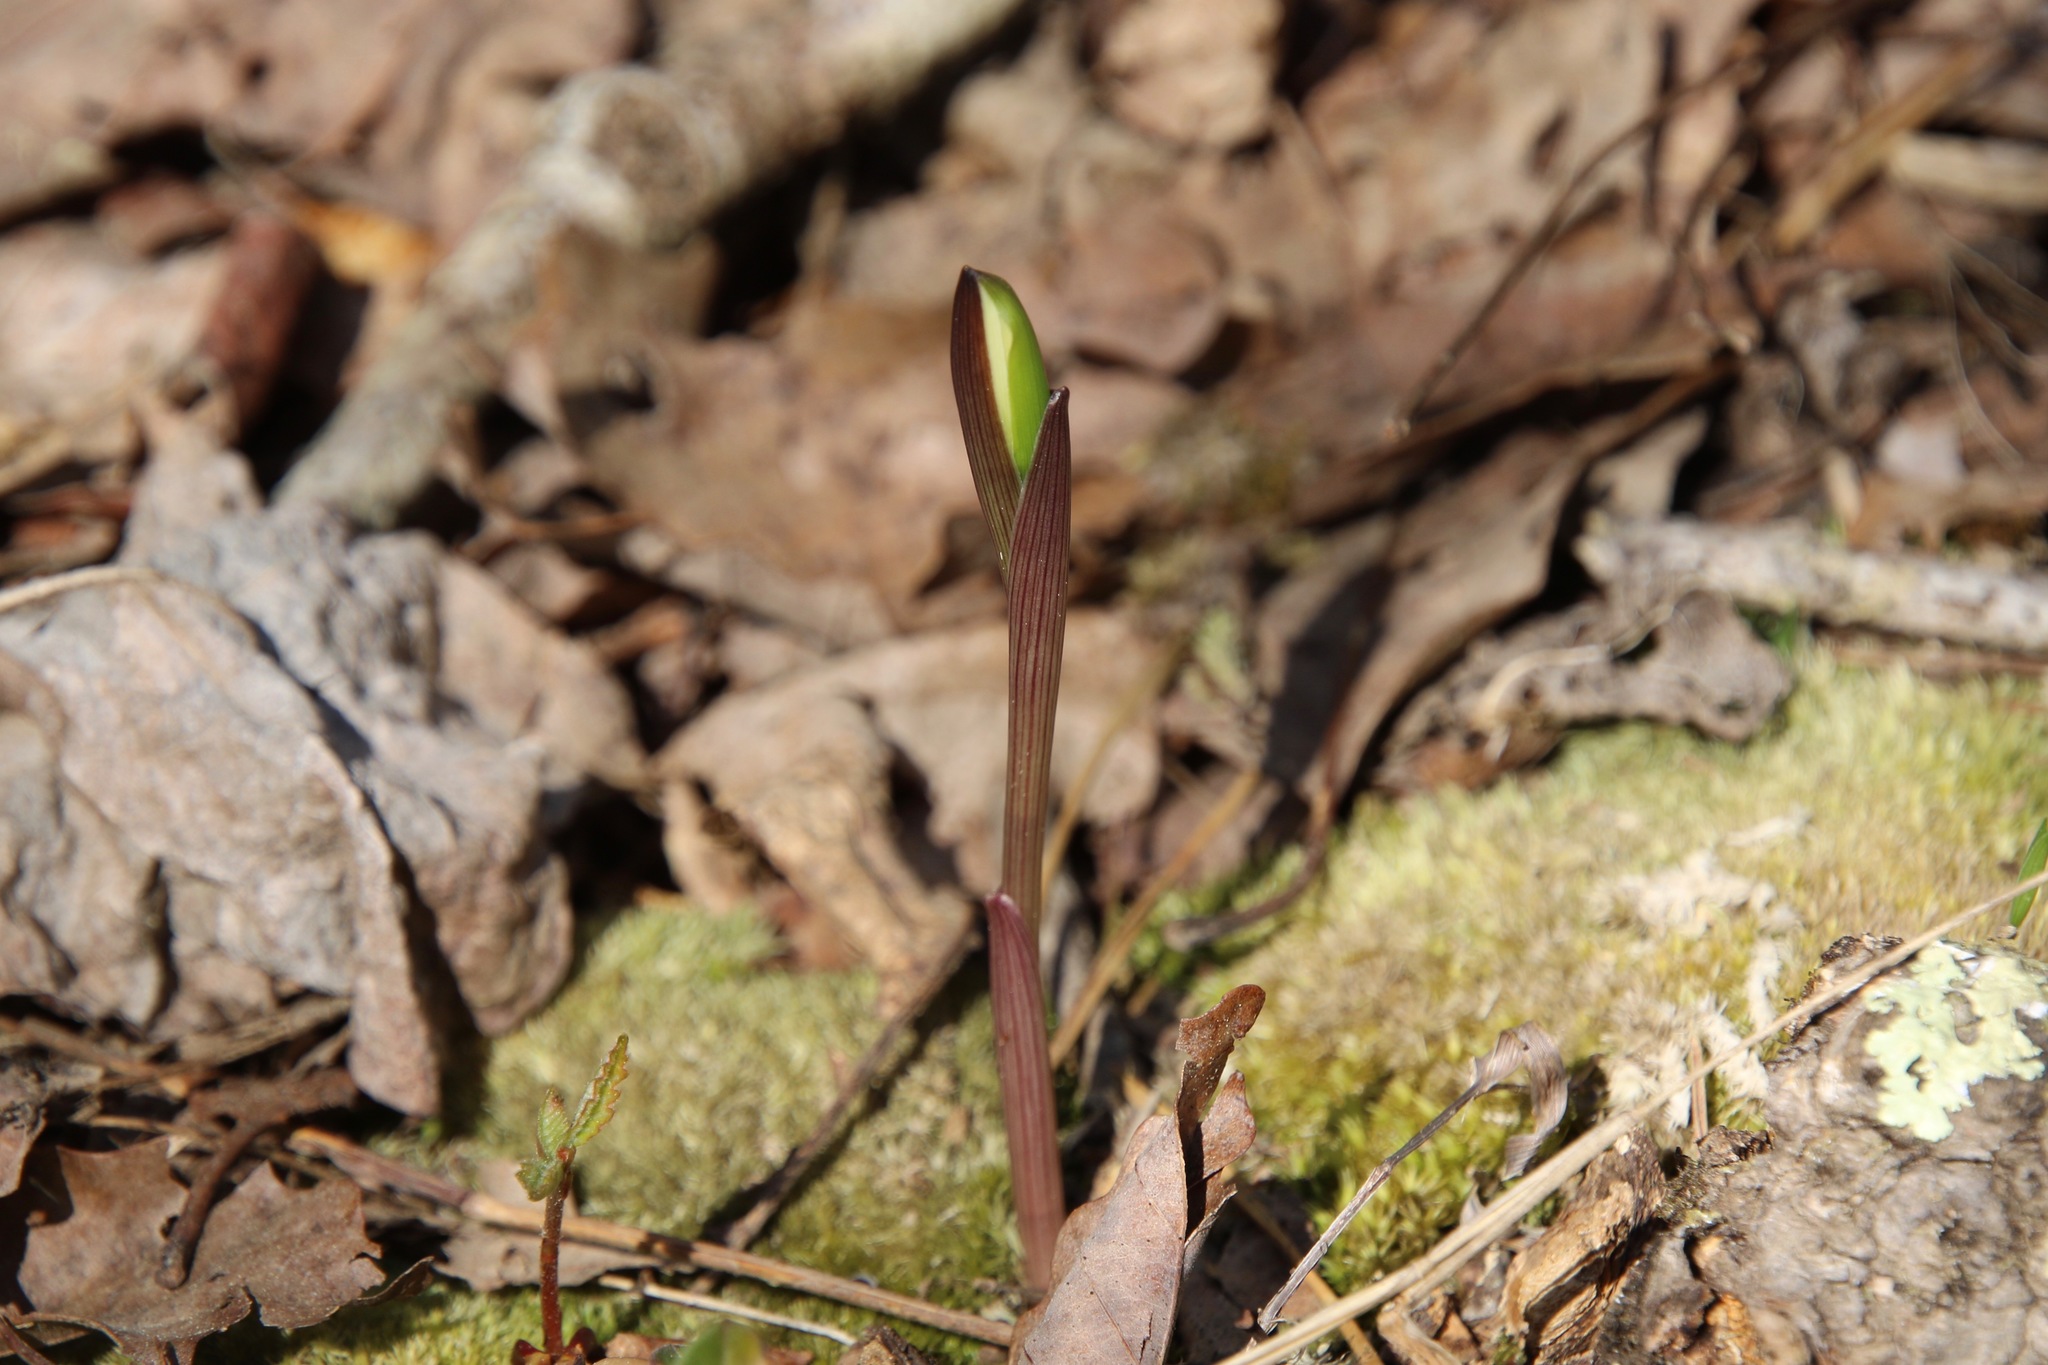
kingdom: Plantae
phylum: Tracheophyta
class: Liliopsida
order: Liliales
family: Colchicaceae
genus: Uvularia
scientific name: Uvularia puberula
